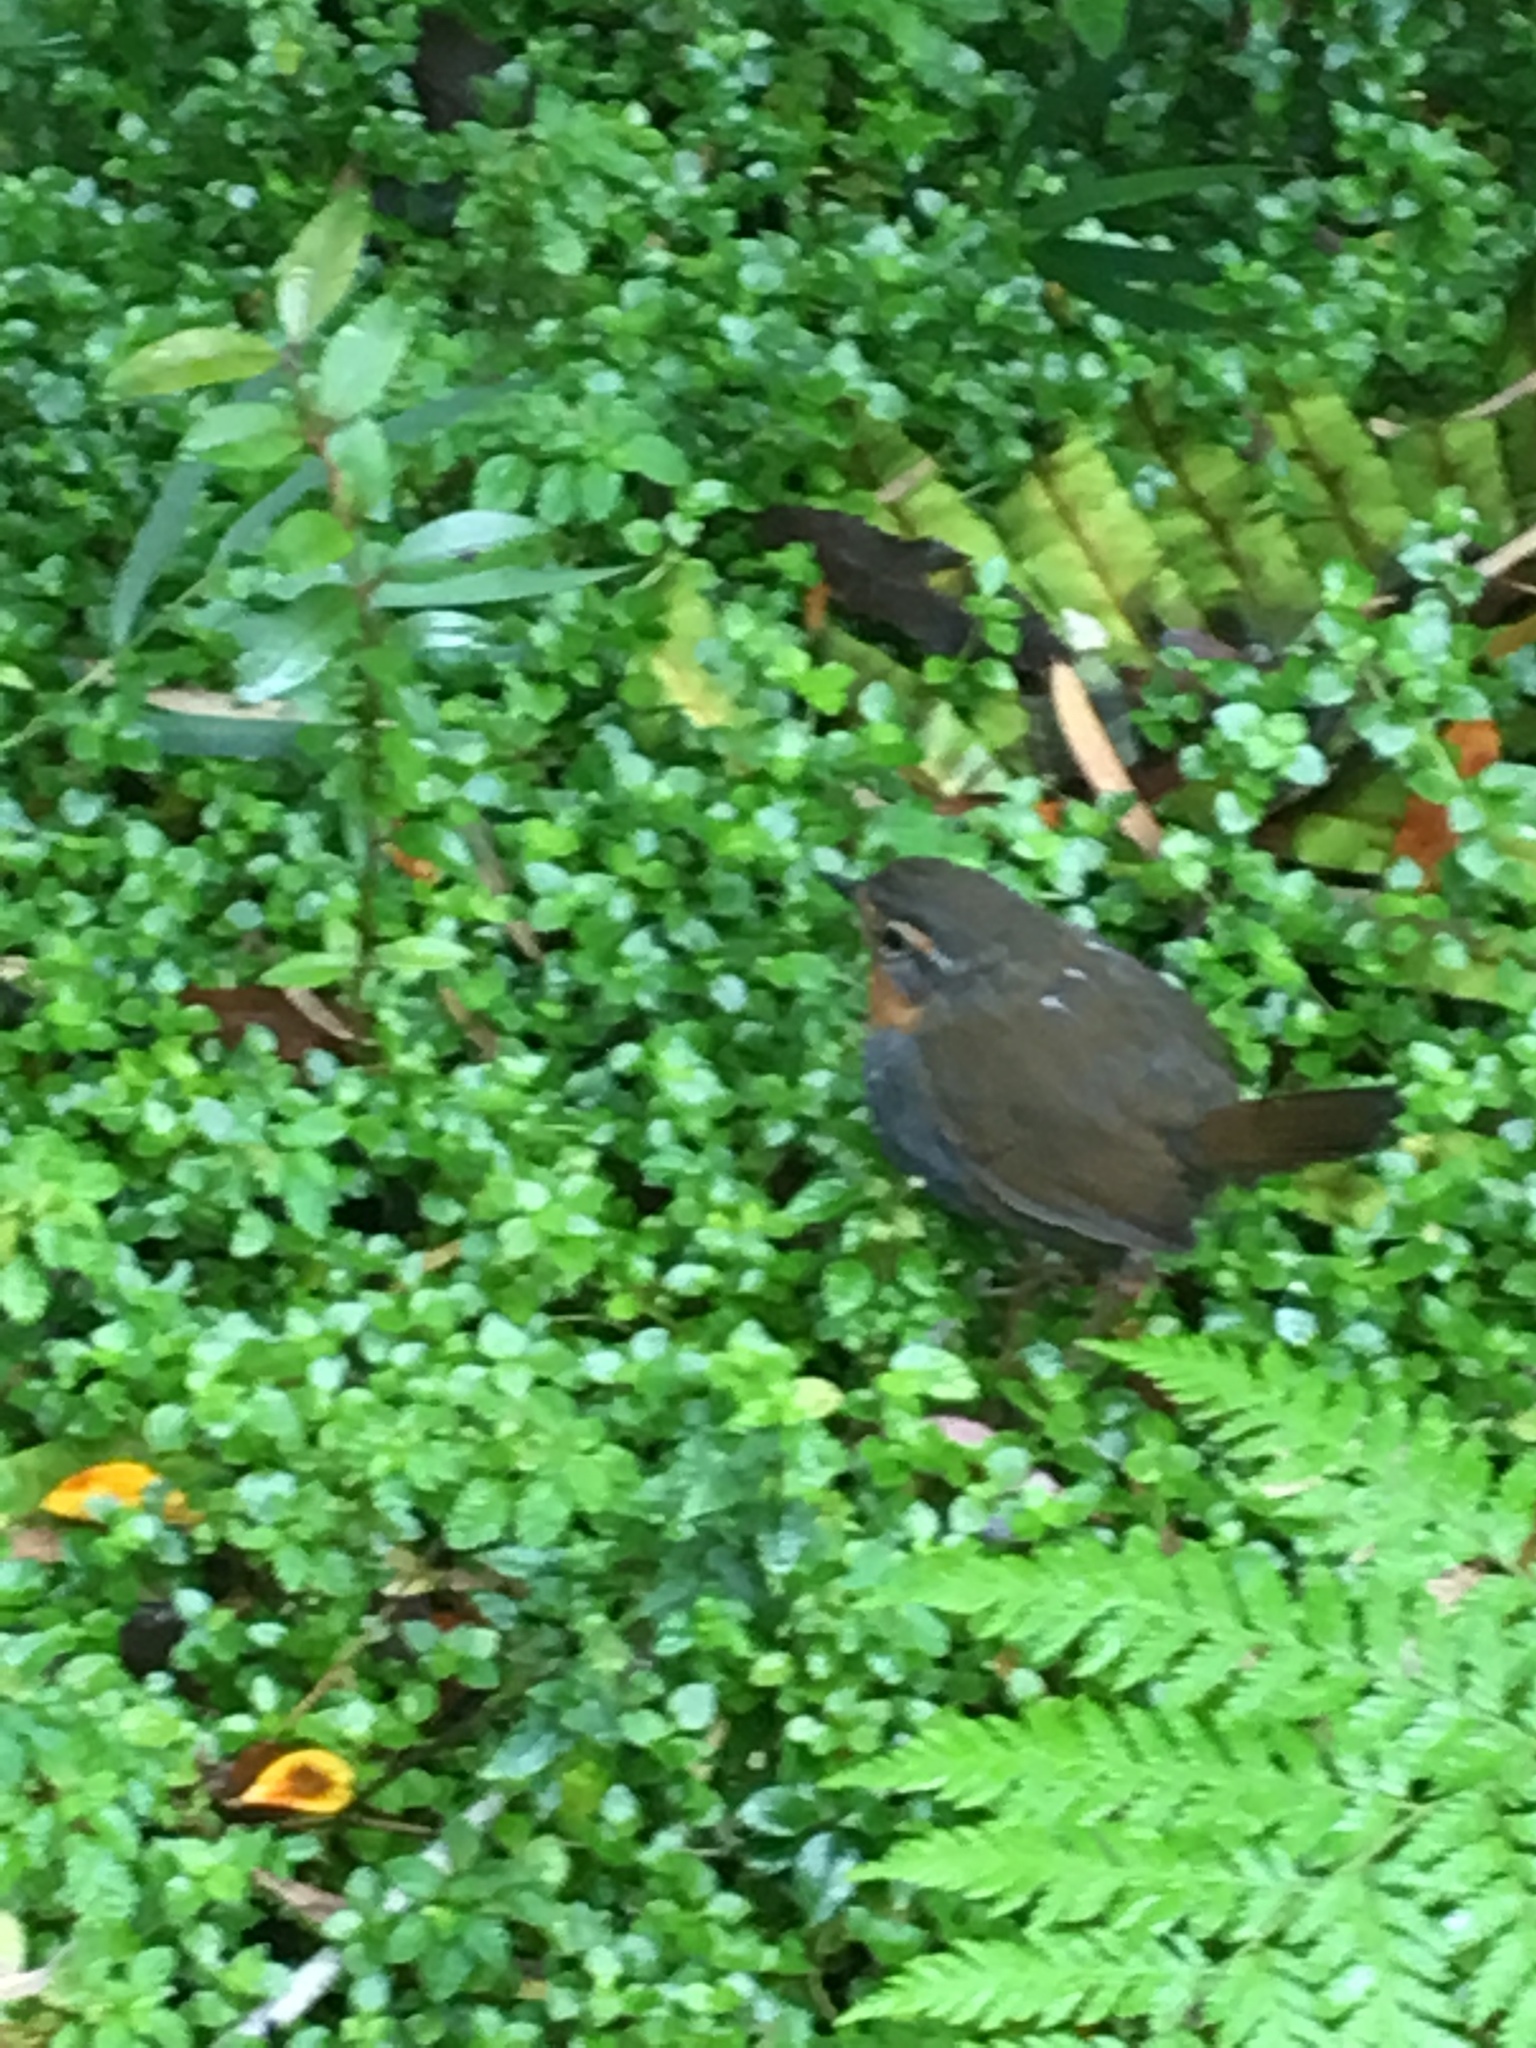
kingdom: Animalia
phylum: Chordata
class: Aves
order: Passeriformes
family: Rhinocryptidae
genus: Scelorchilus
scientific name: Scelorchilus rubecula
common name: Chucao tapaculo
